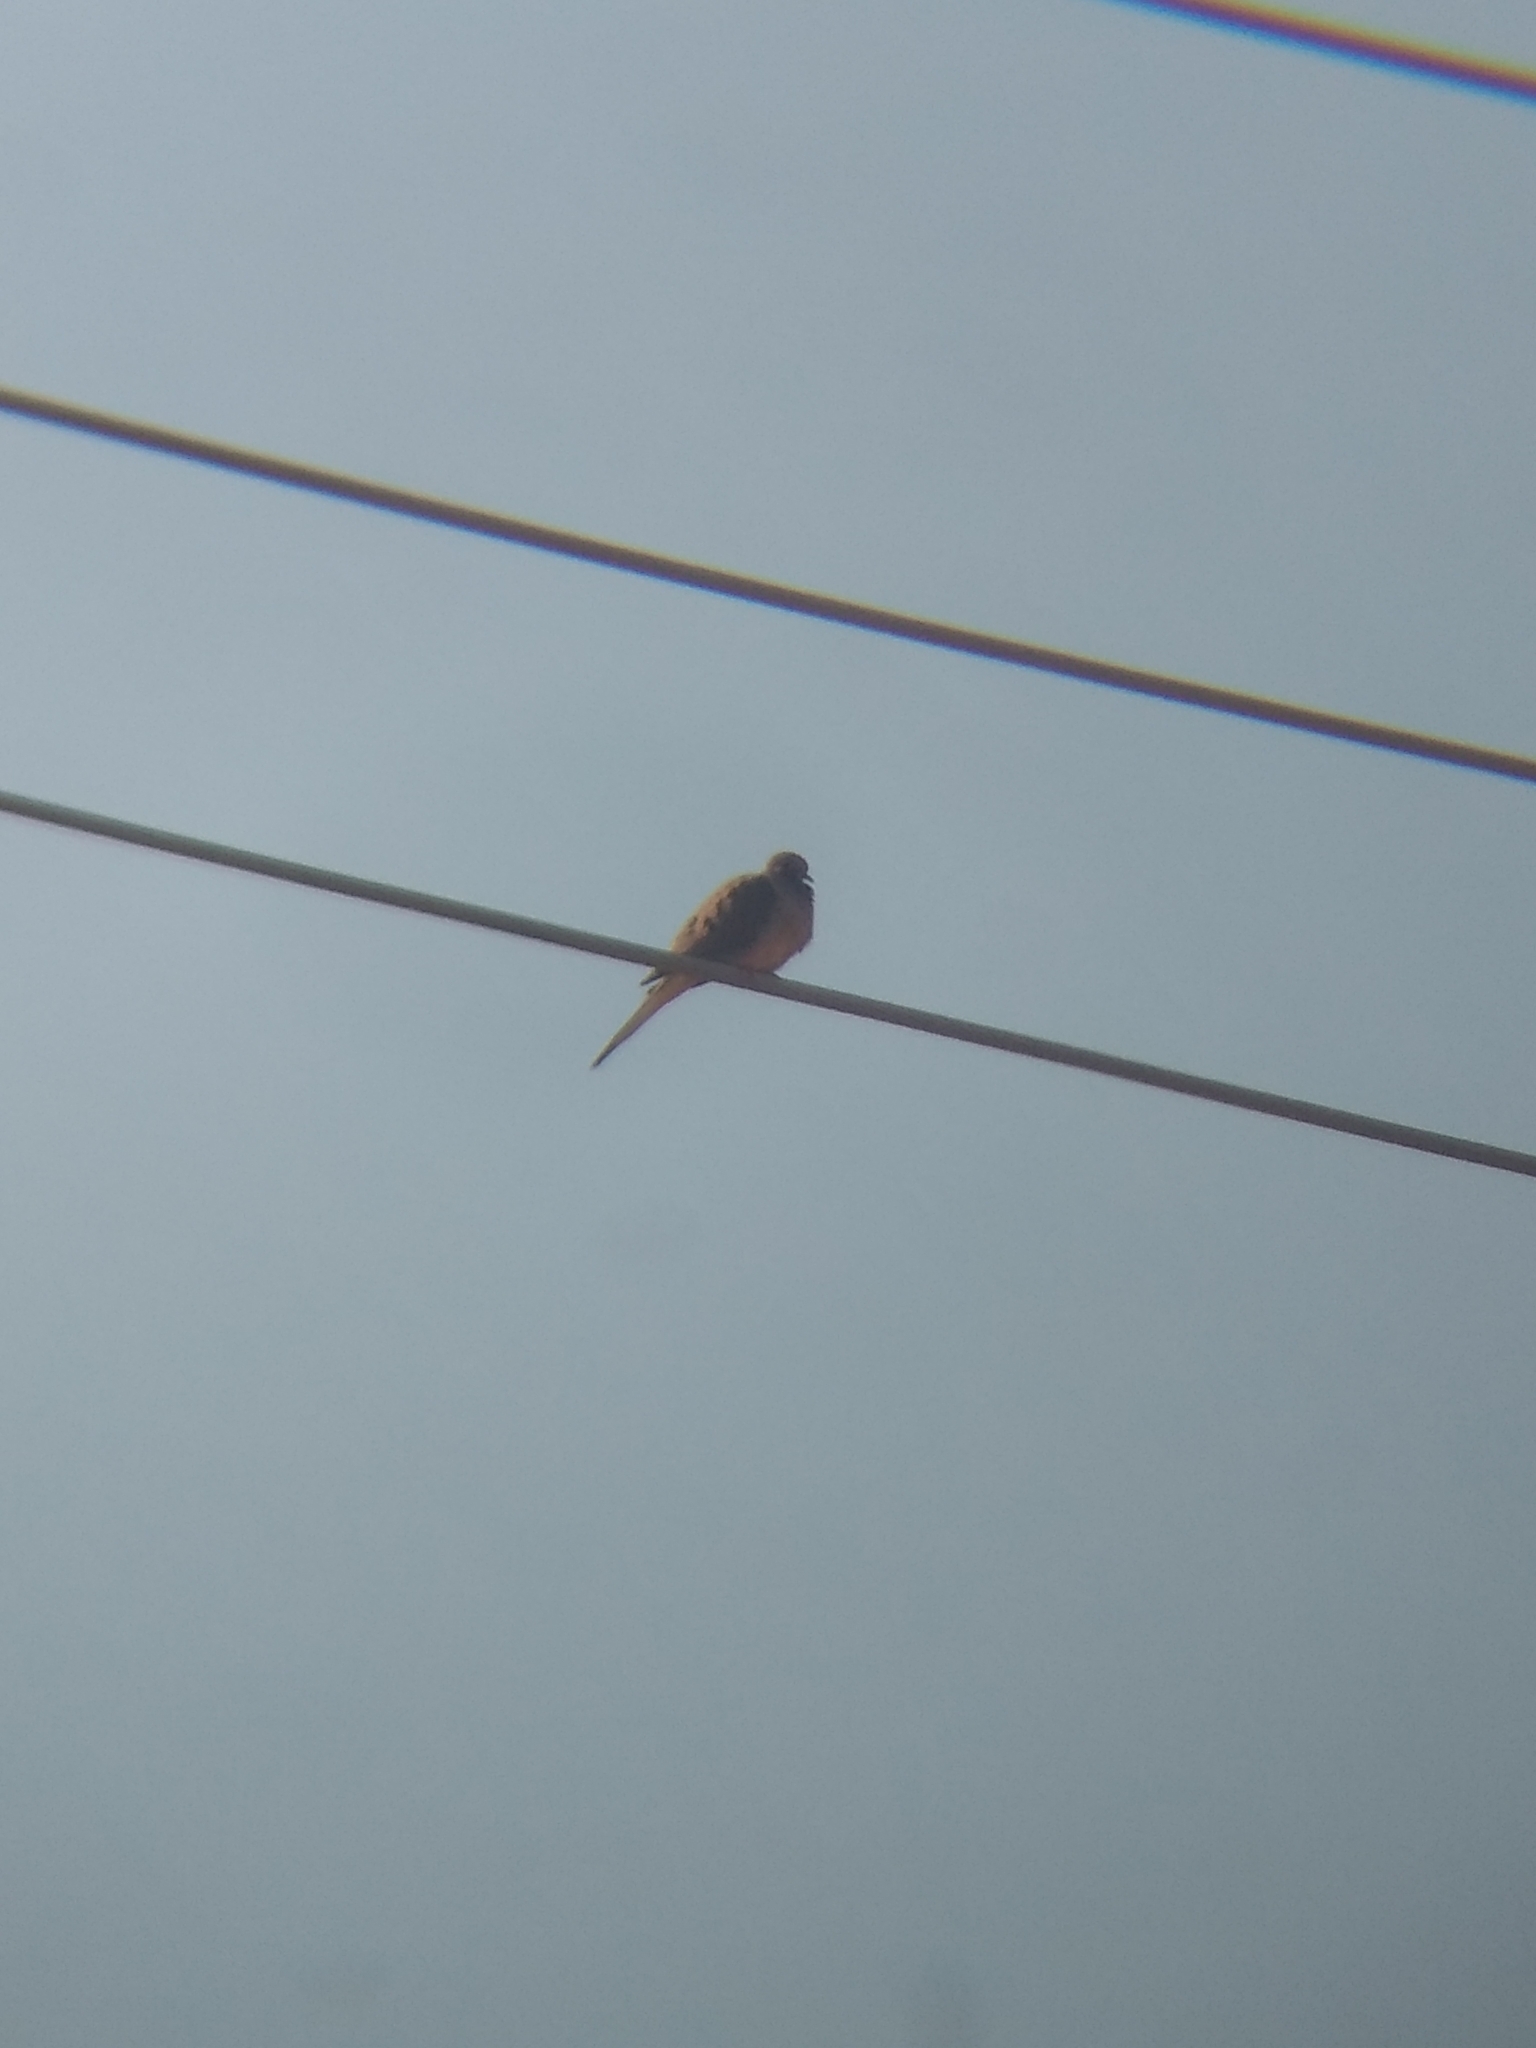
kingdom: Animalia
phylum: Chordata
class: Aves
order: Columbiformes
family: Columbidae
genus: Zenaida
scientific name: Zenaida macroura
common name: Mourning dove
